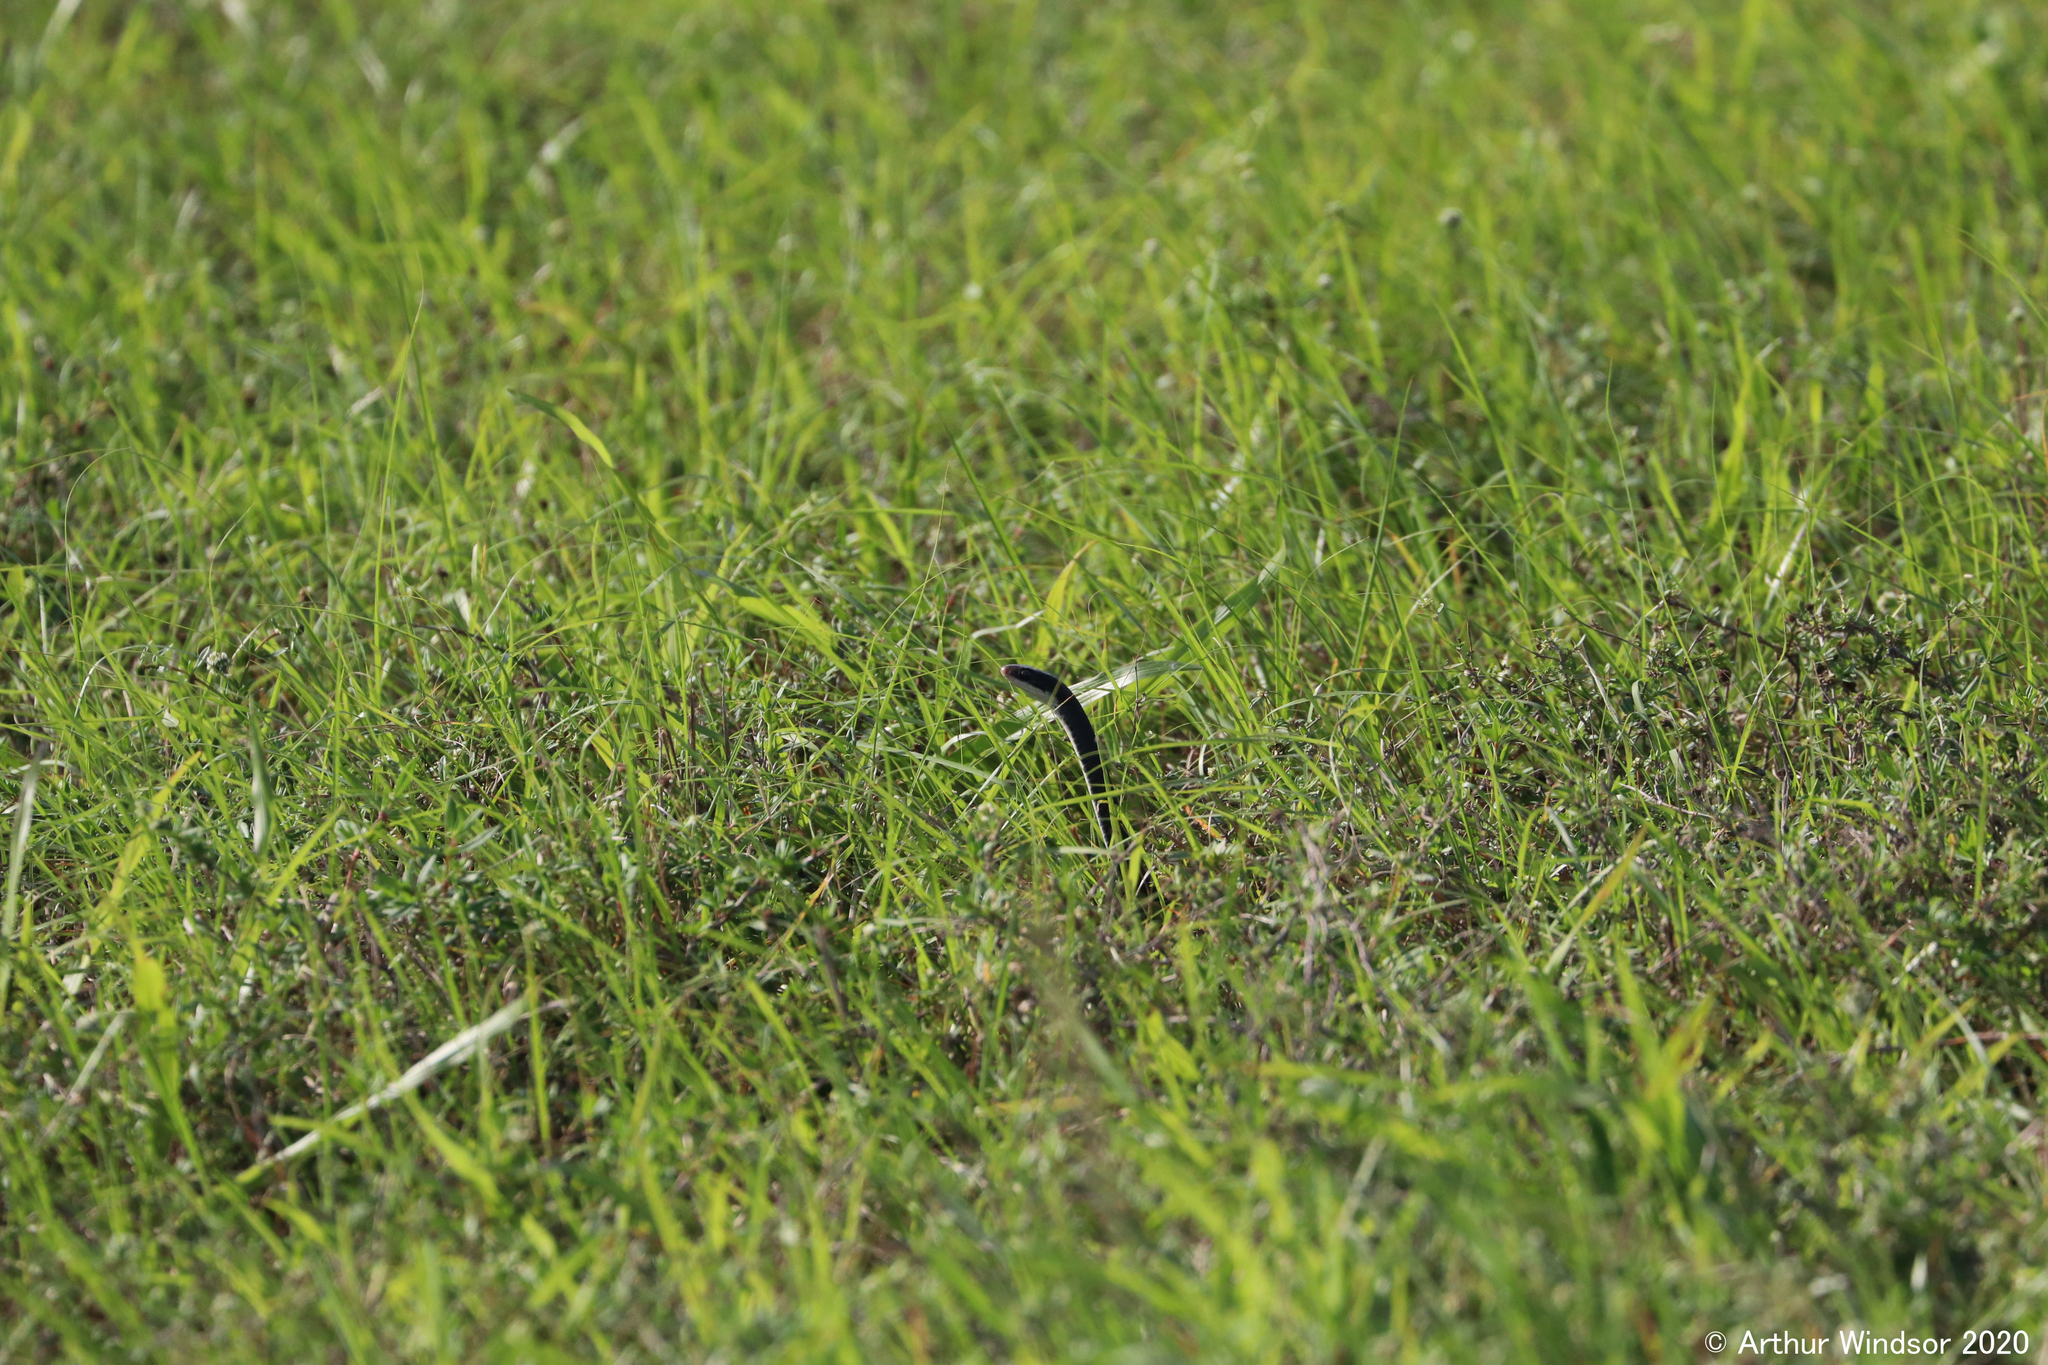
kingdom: Animalia
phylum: Chordata
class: Squamata
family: Colubridae
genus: Coluber
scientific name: Coluber constrictor
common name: Eastern racer
